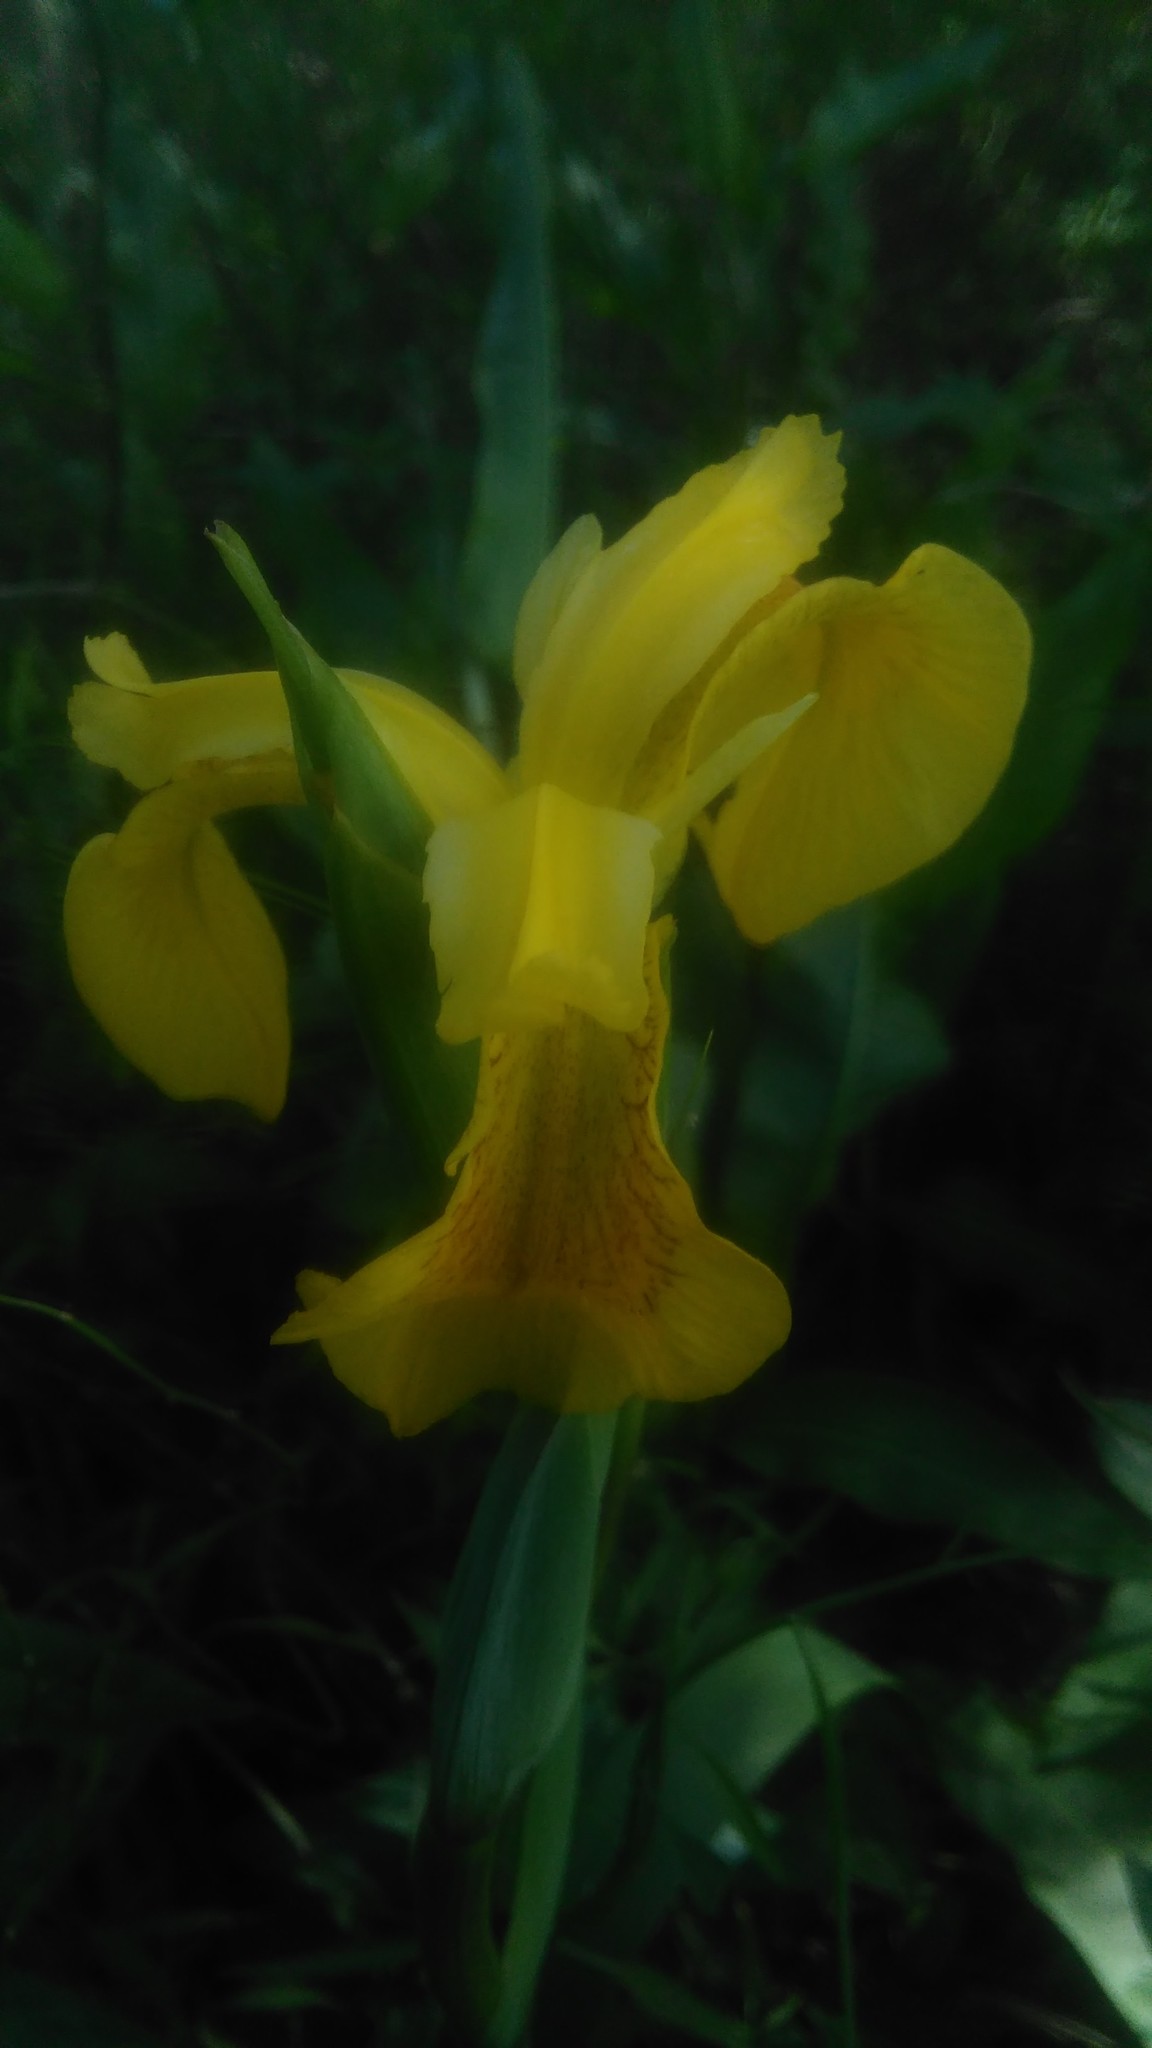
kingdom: Plantae
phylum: Tracheophyta
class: Liliopsida
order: Asparagales
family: Iridaceae
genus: Iris
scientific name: Iris pseudacorus
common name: Yellow flag
